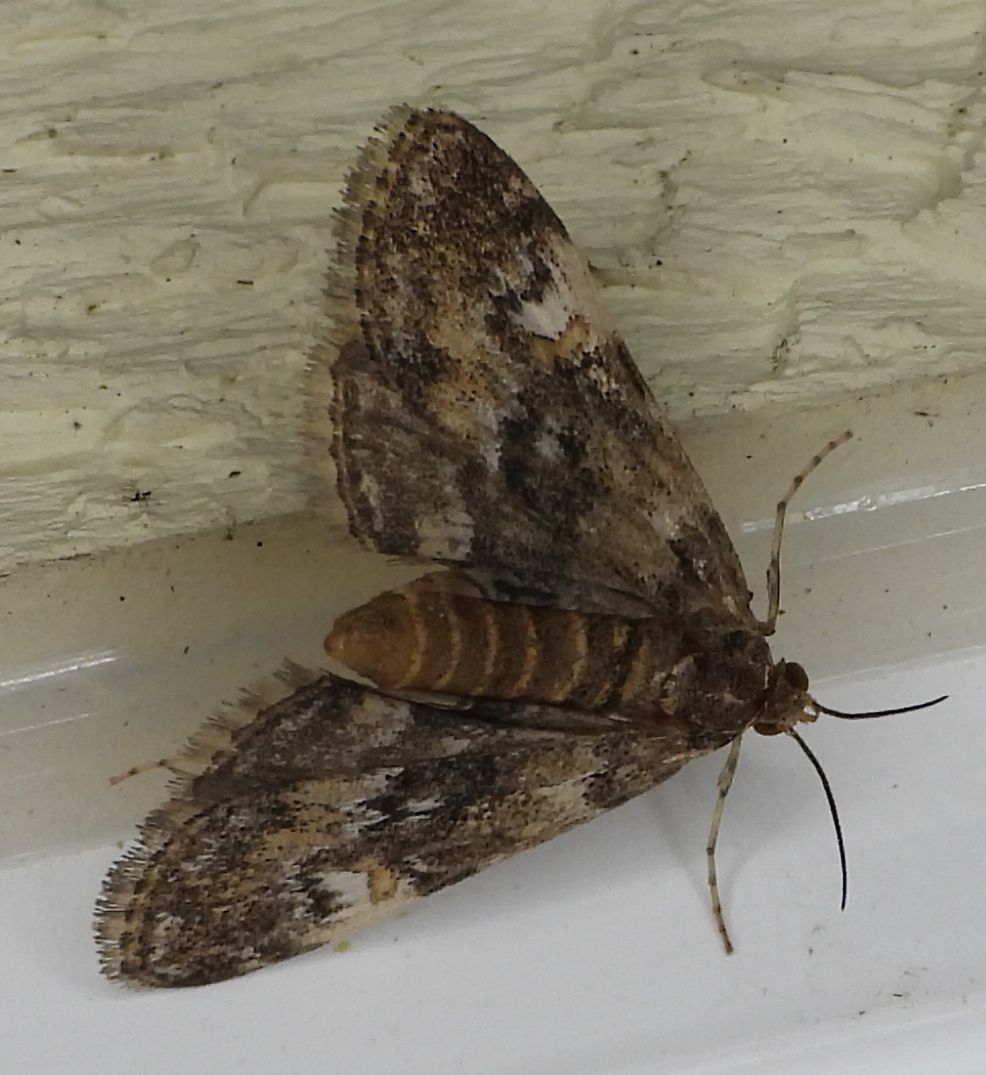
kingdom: Animalia
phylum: Arthropoda
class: Insecta
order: Lepidoptera
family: Crambidae
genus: Elophila
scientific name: Elophila obliteralis
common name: Waterlily leafcutter moth
